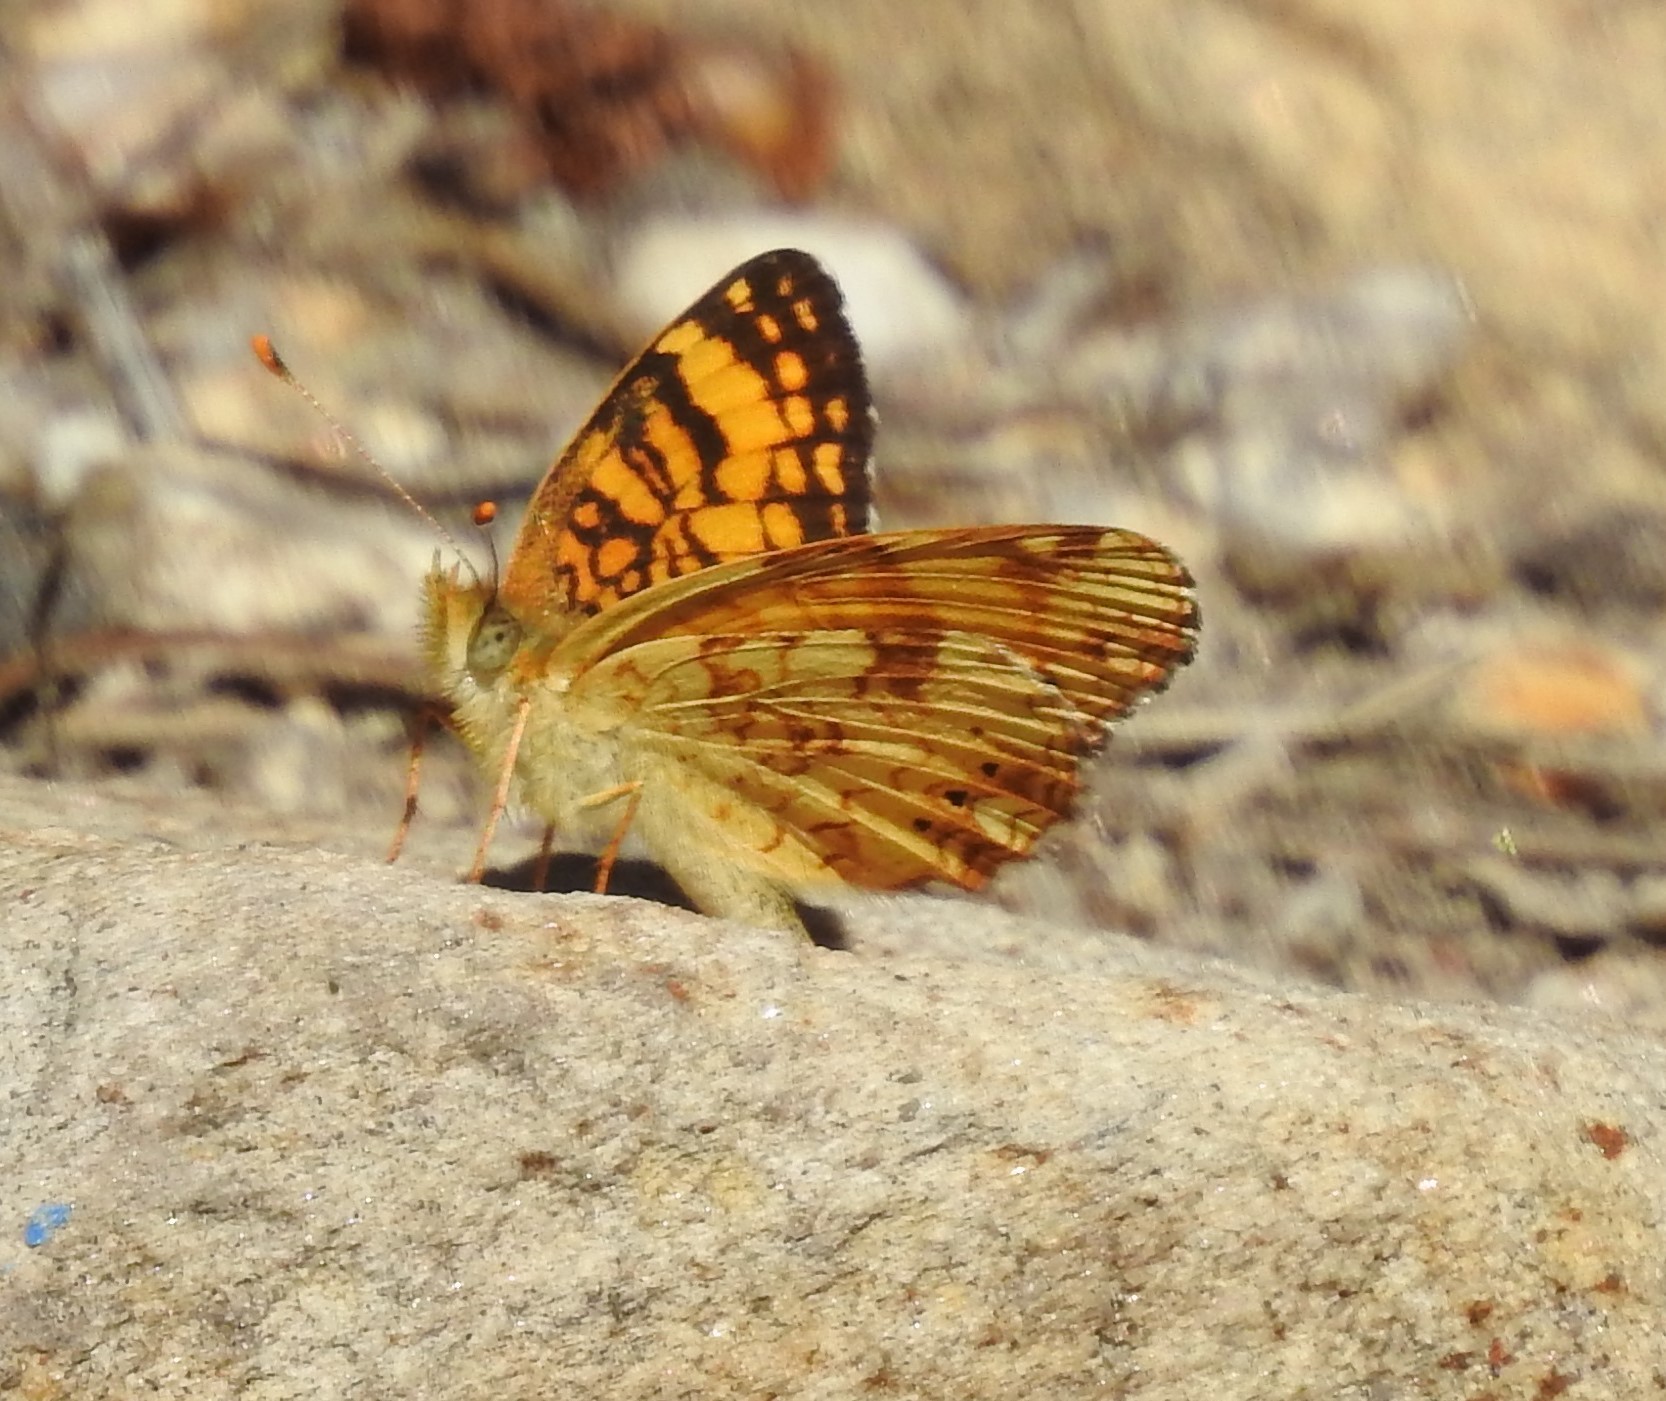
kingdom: Animalia
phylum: Arthropoda
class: Insecta
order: Lepidoptera
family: Nymphalidae
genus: Eresia
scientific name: Eresia aveyrona
